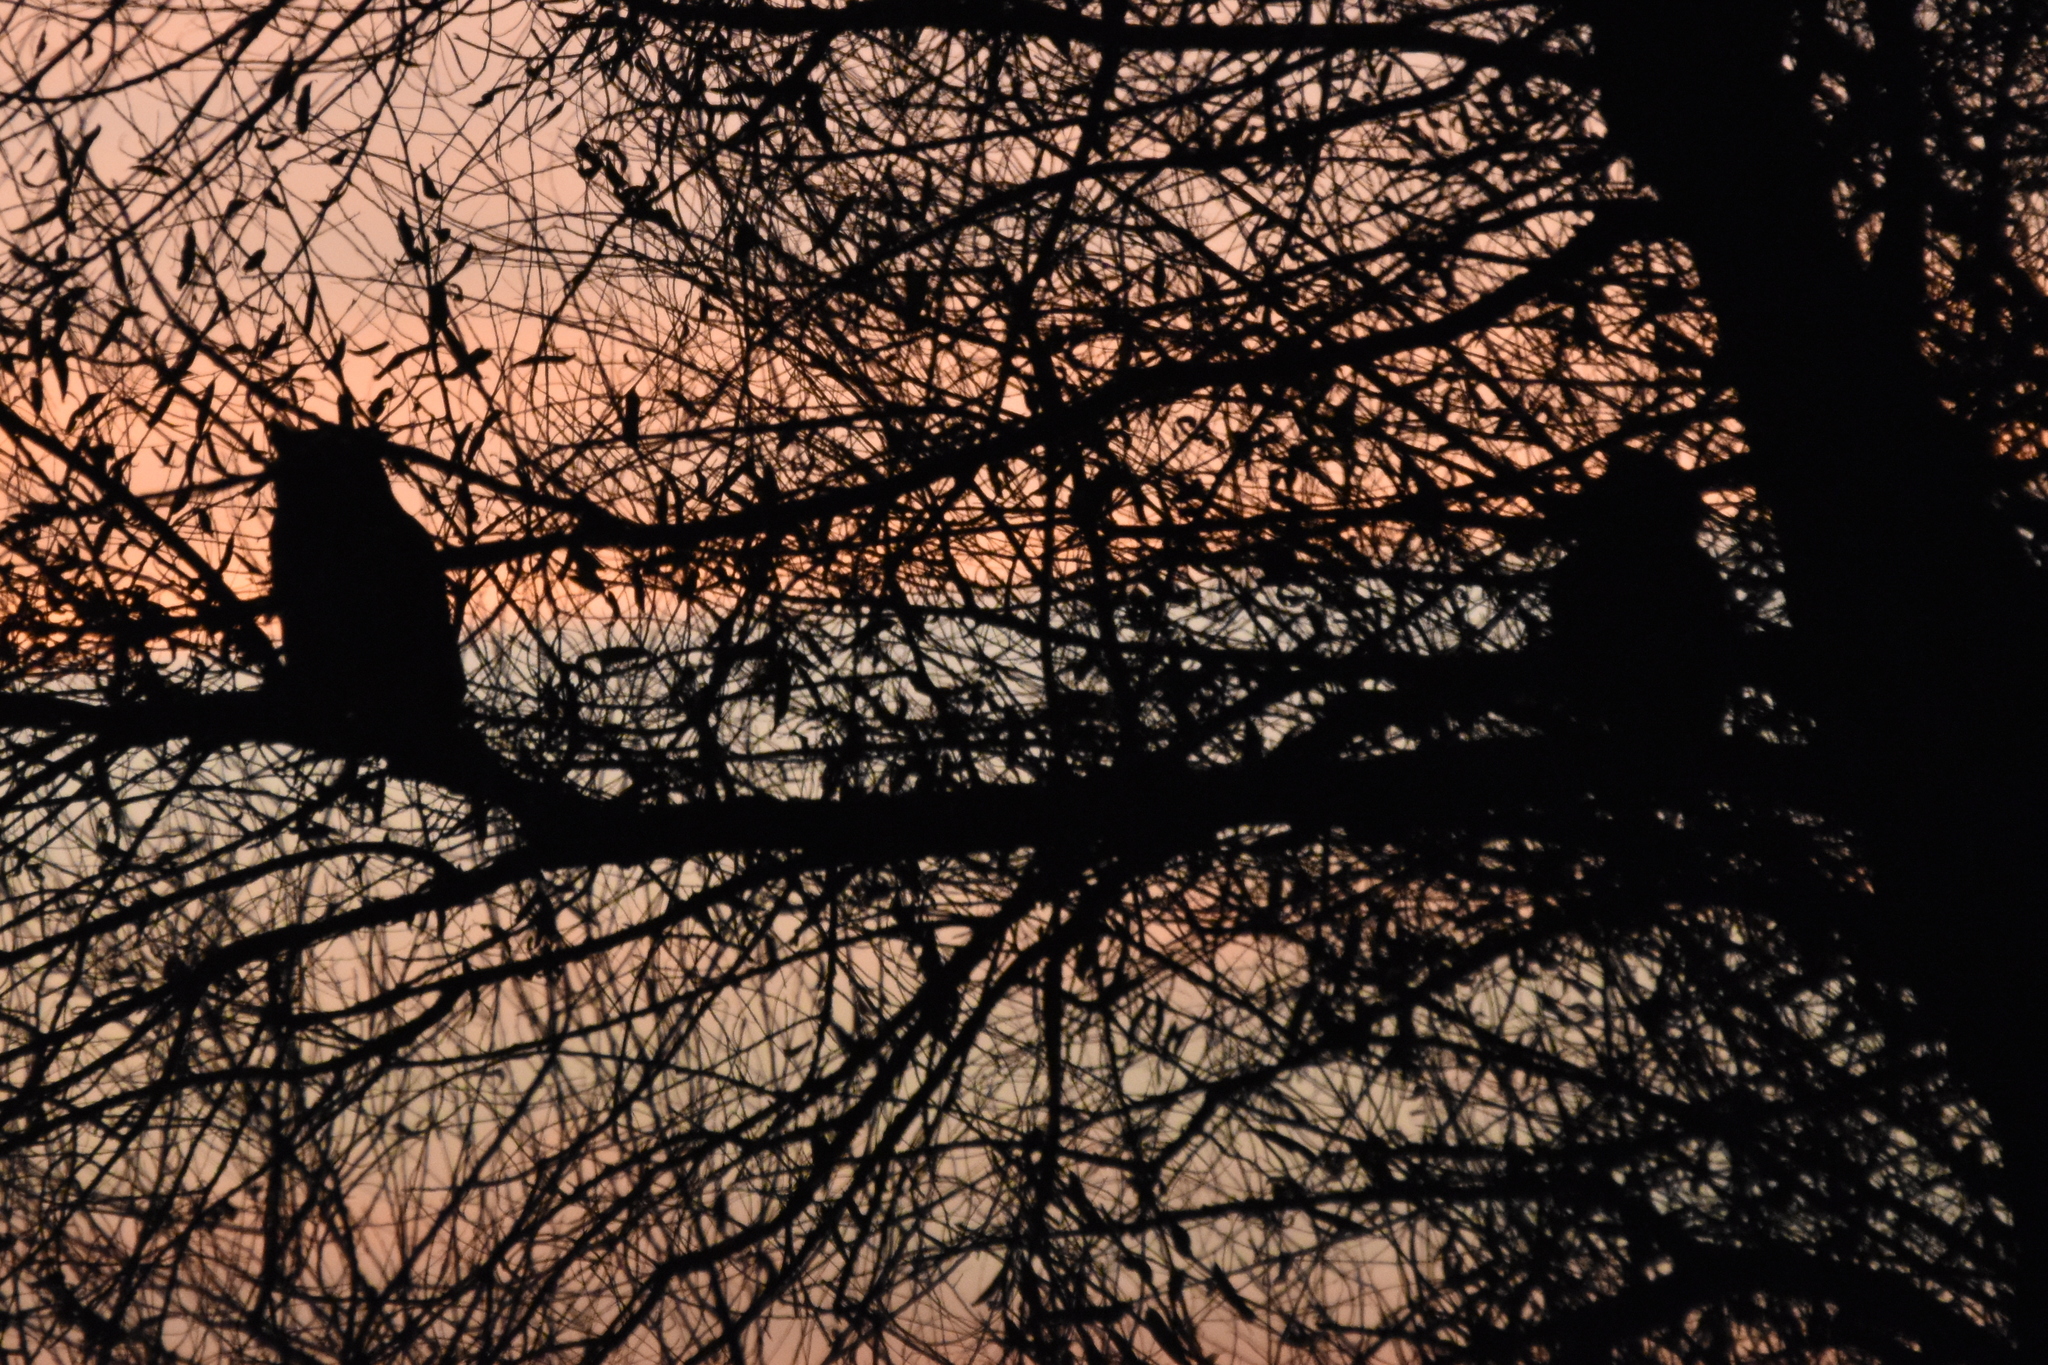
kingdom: Animalia
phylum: Chordata
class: Aves
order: Strigiformes
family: Strigidae
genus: Bubo
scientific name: Bubo virginianus
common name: Great horned owl
